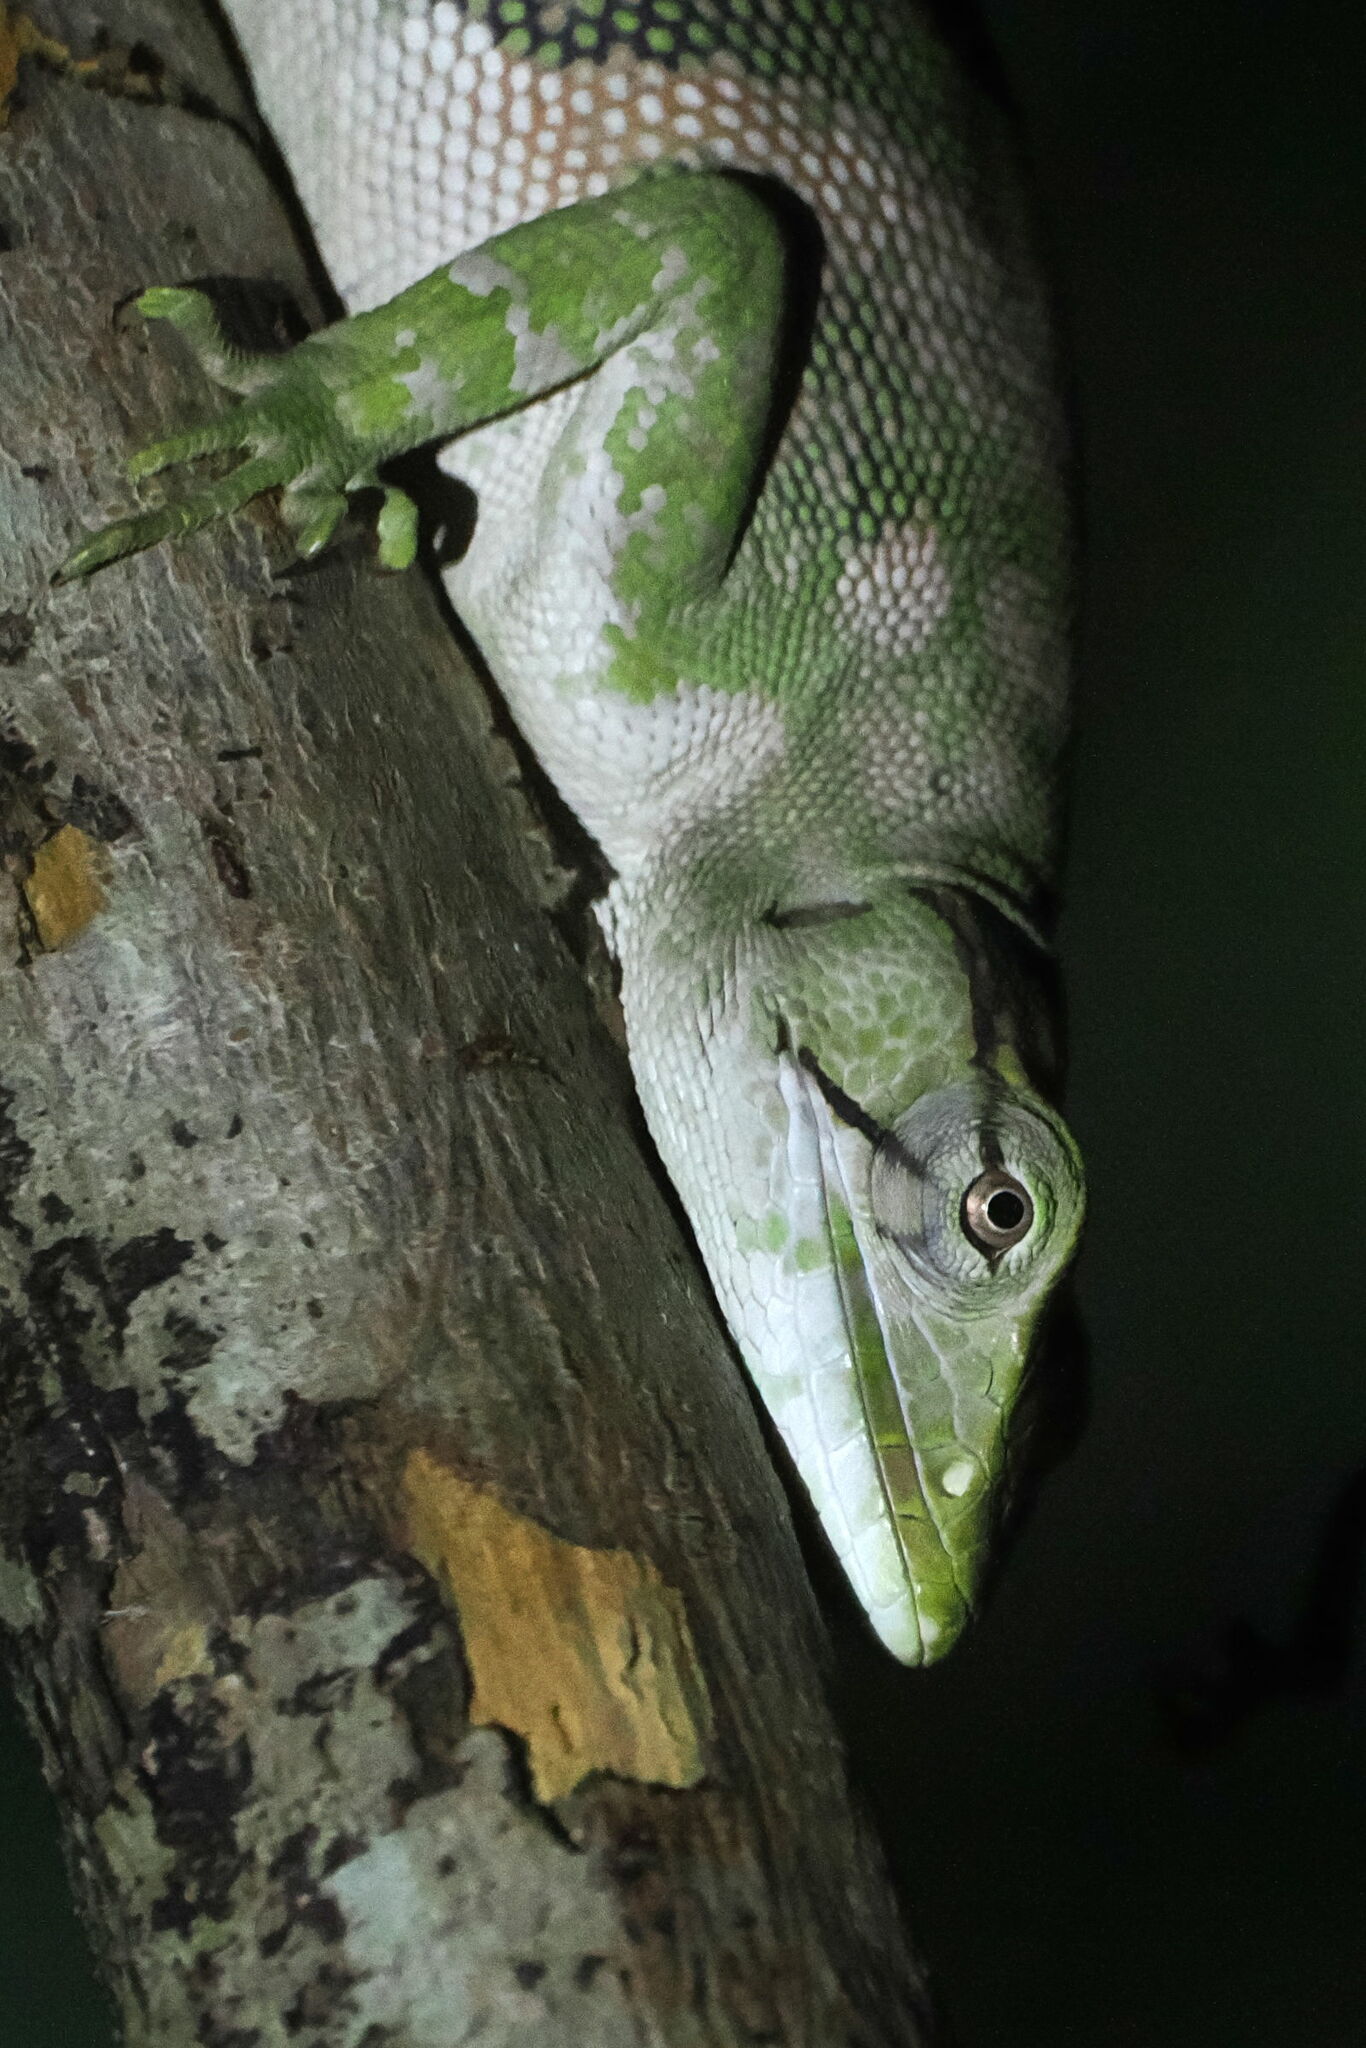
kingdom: Animalia
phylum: Chordata
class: Squamata
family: Polychrotidae
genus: Polychrus
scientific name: Polychrus marmoratus
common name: Many-colored bush anole
